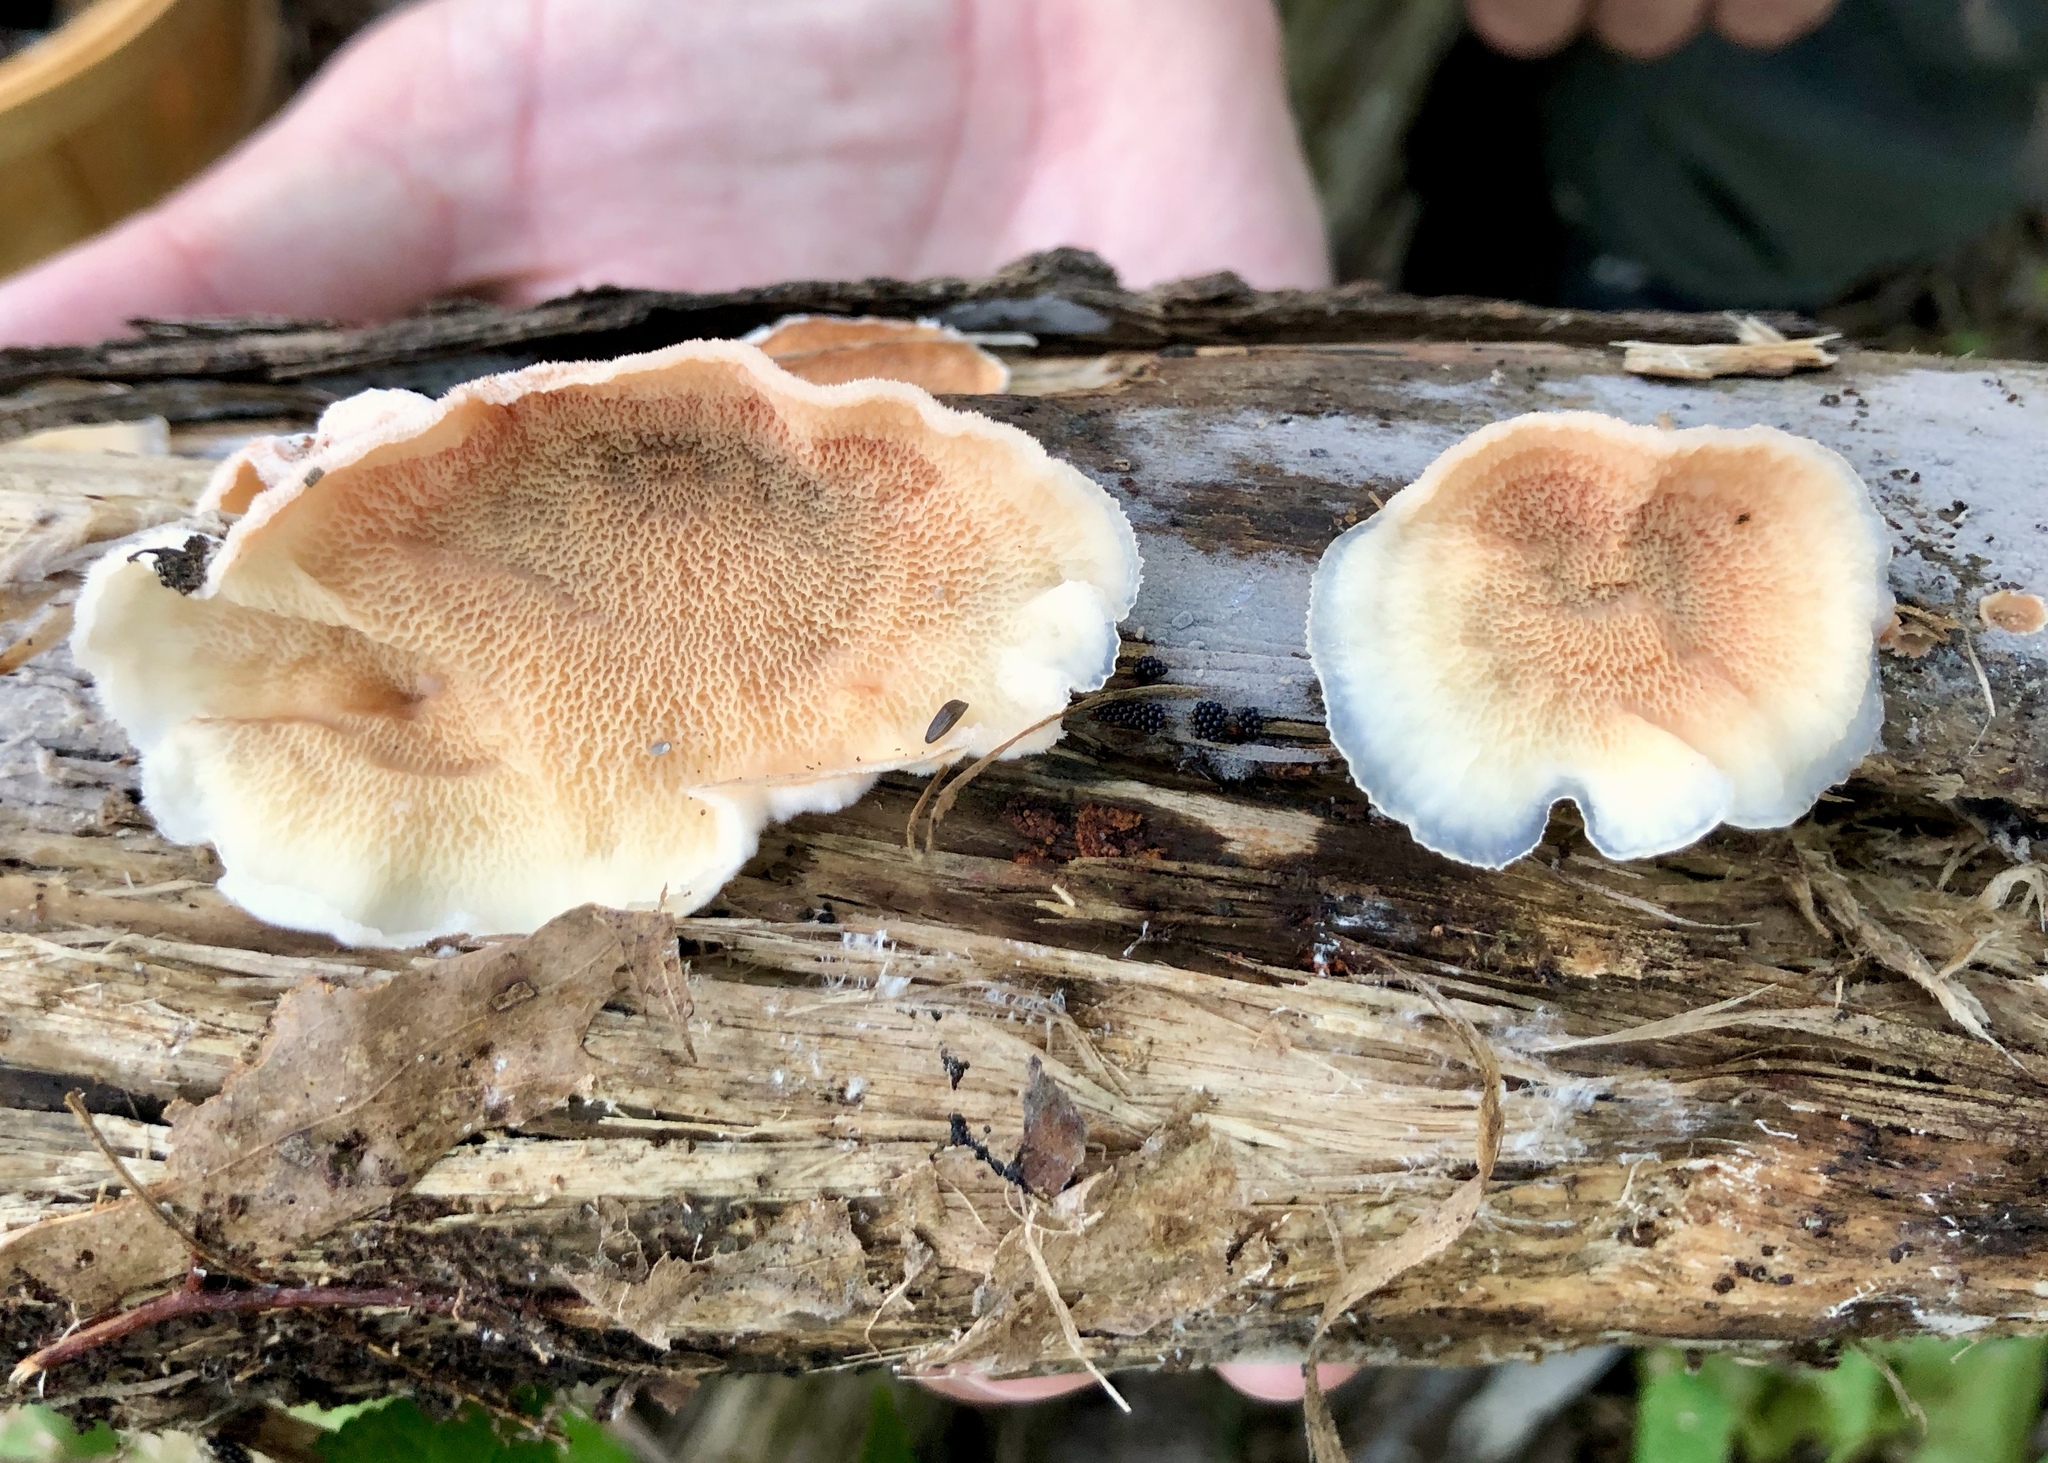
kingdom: Fungi
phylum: Basidiomycota
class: Agaricomycetes
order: Polyporales
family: Meruliaceae
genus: Phlebia
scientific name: Phlebia tremellosa
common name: Jelly rot
